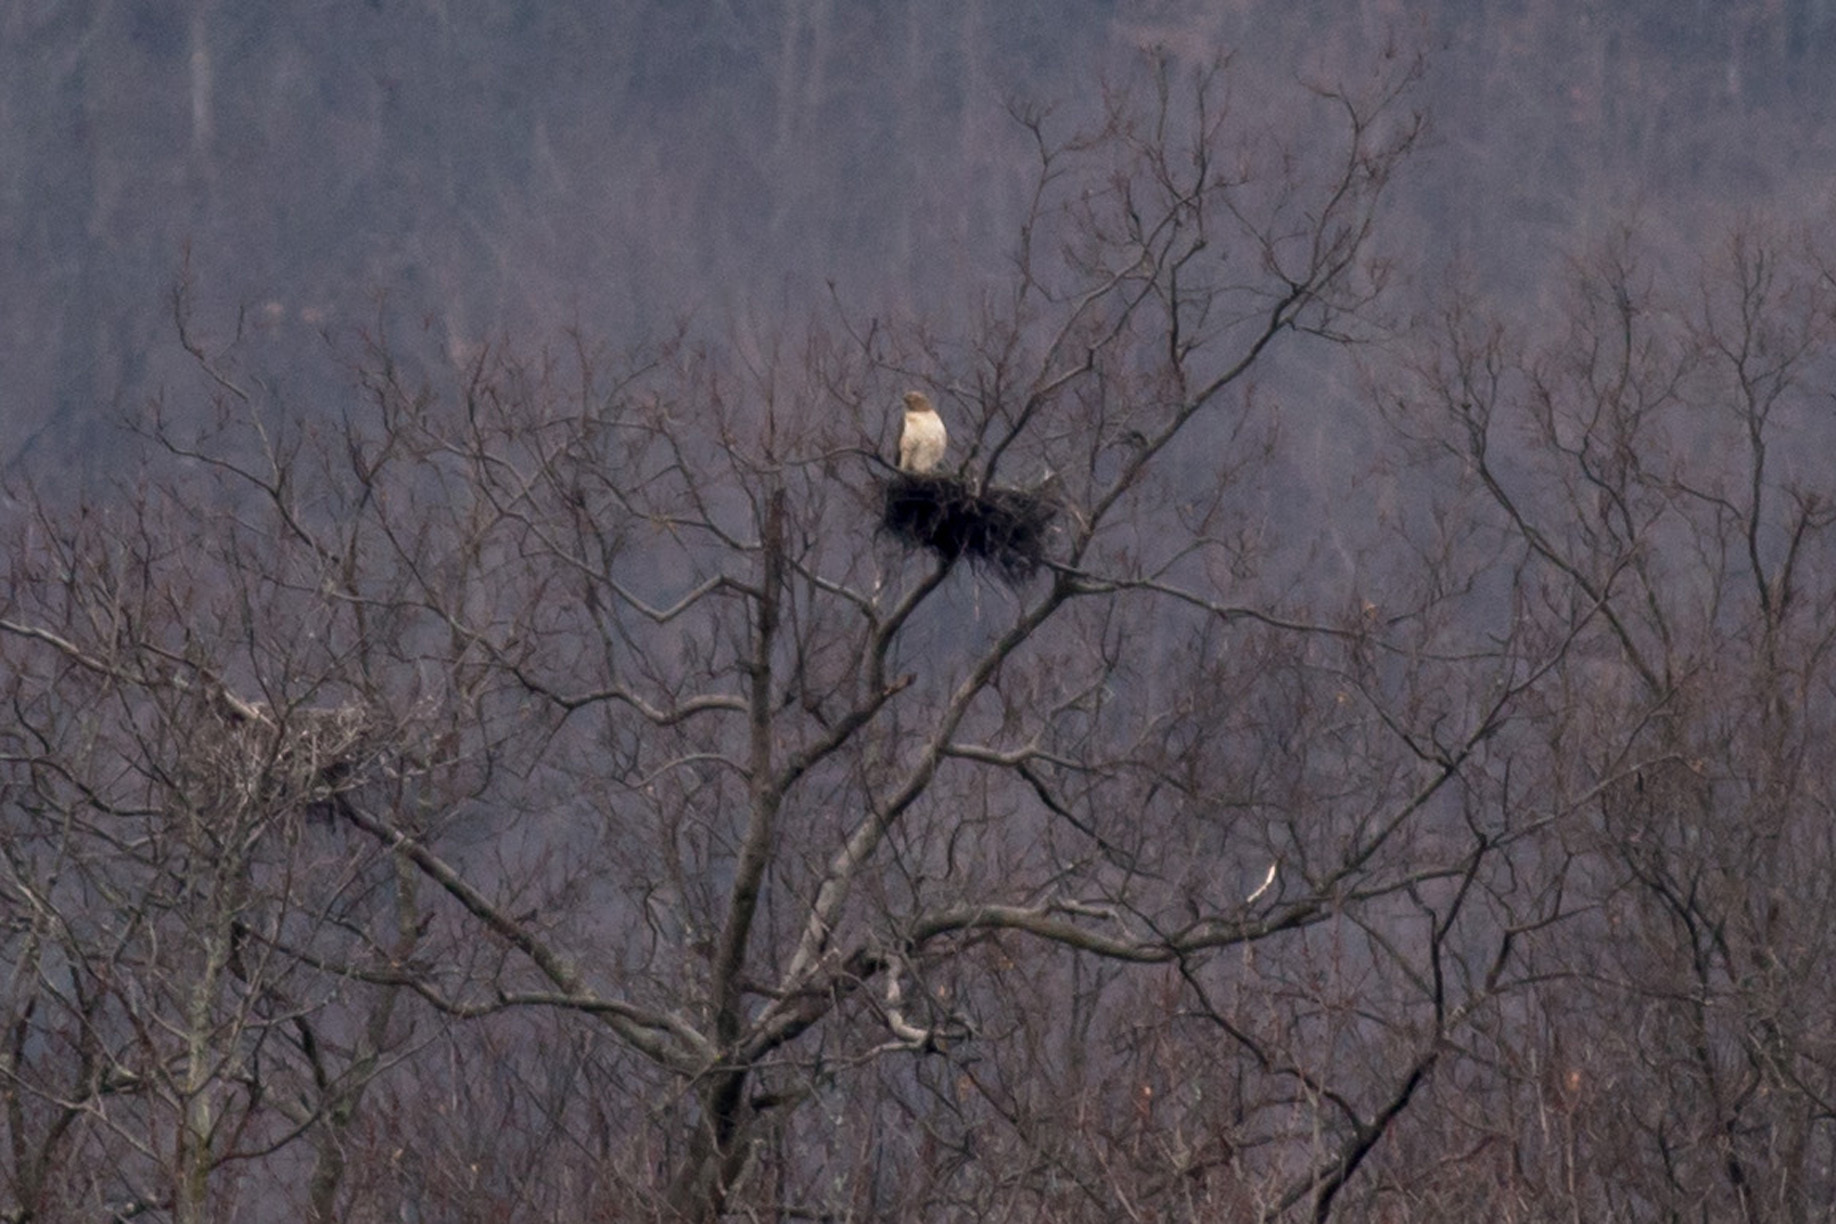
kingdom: Animalia
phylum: Chordata
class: Aves
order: Accipitriformes
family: Accipitridae
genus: Buteo
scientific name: Buteo jamaicensis
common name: Red-tailed hawk
